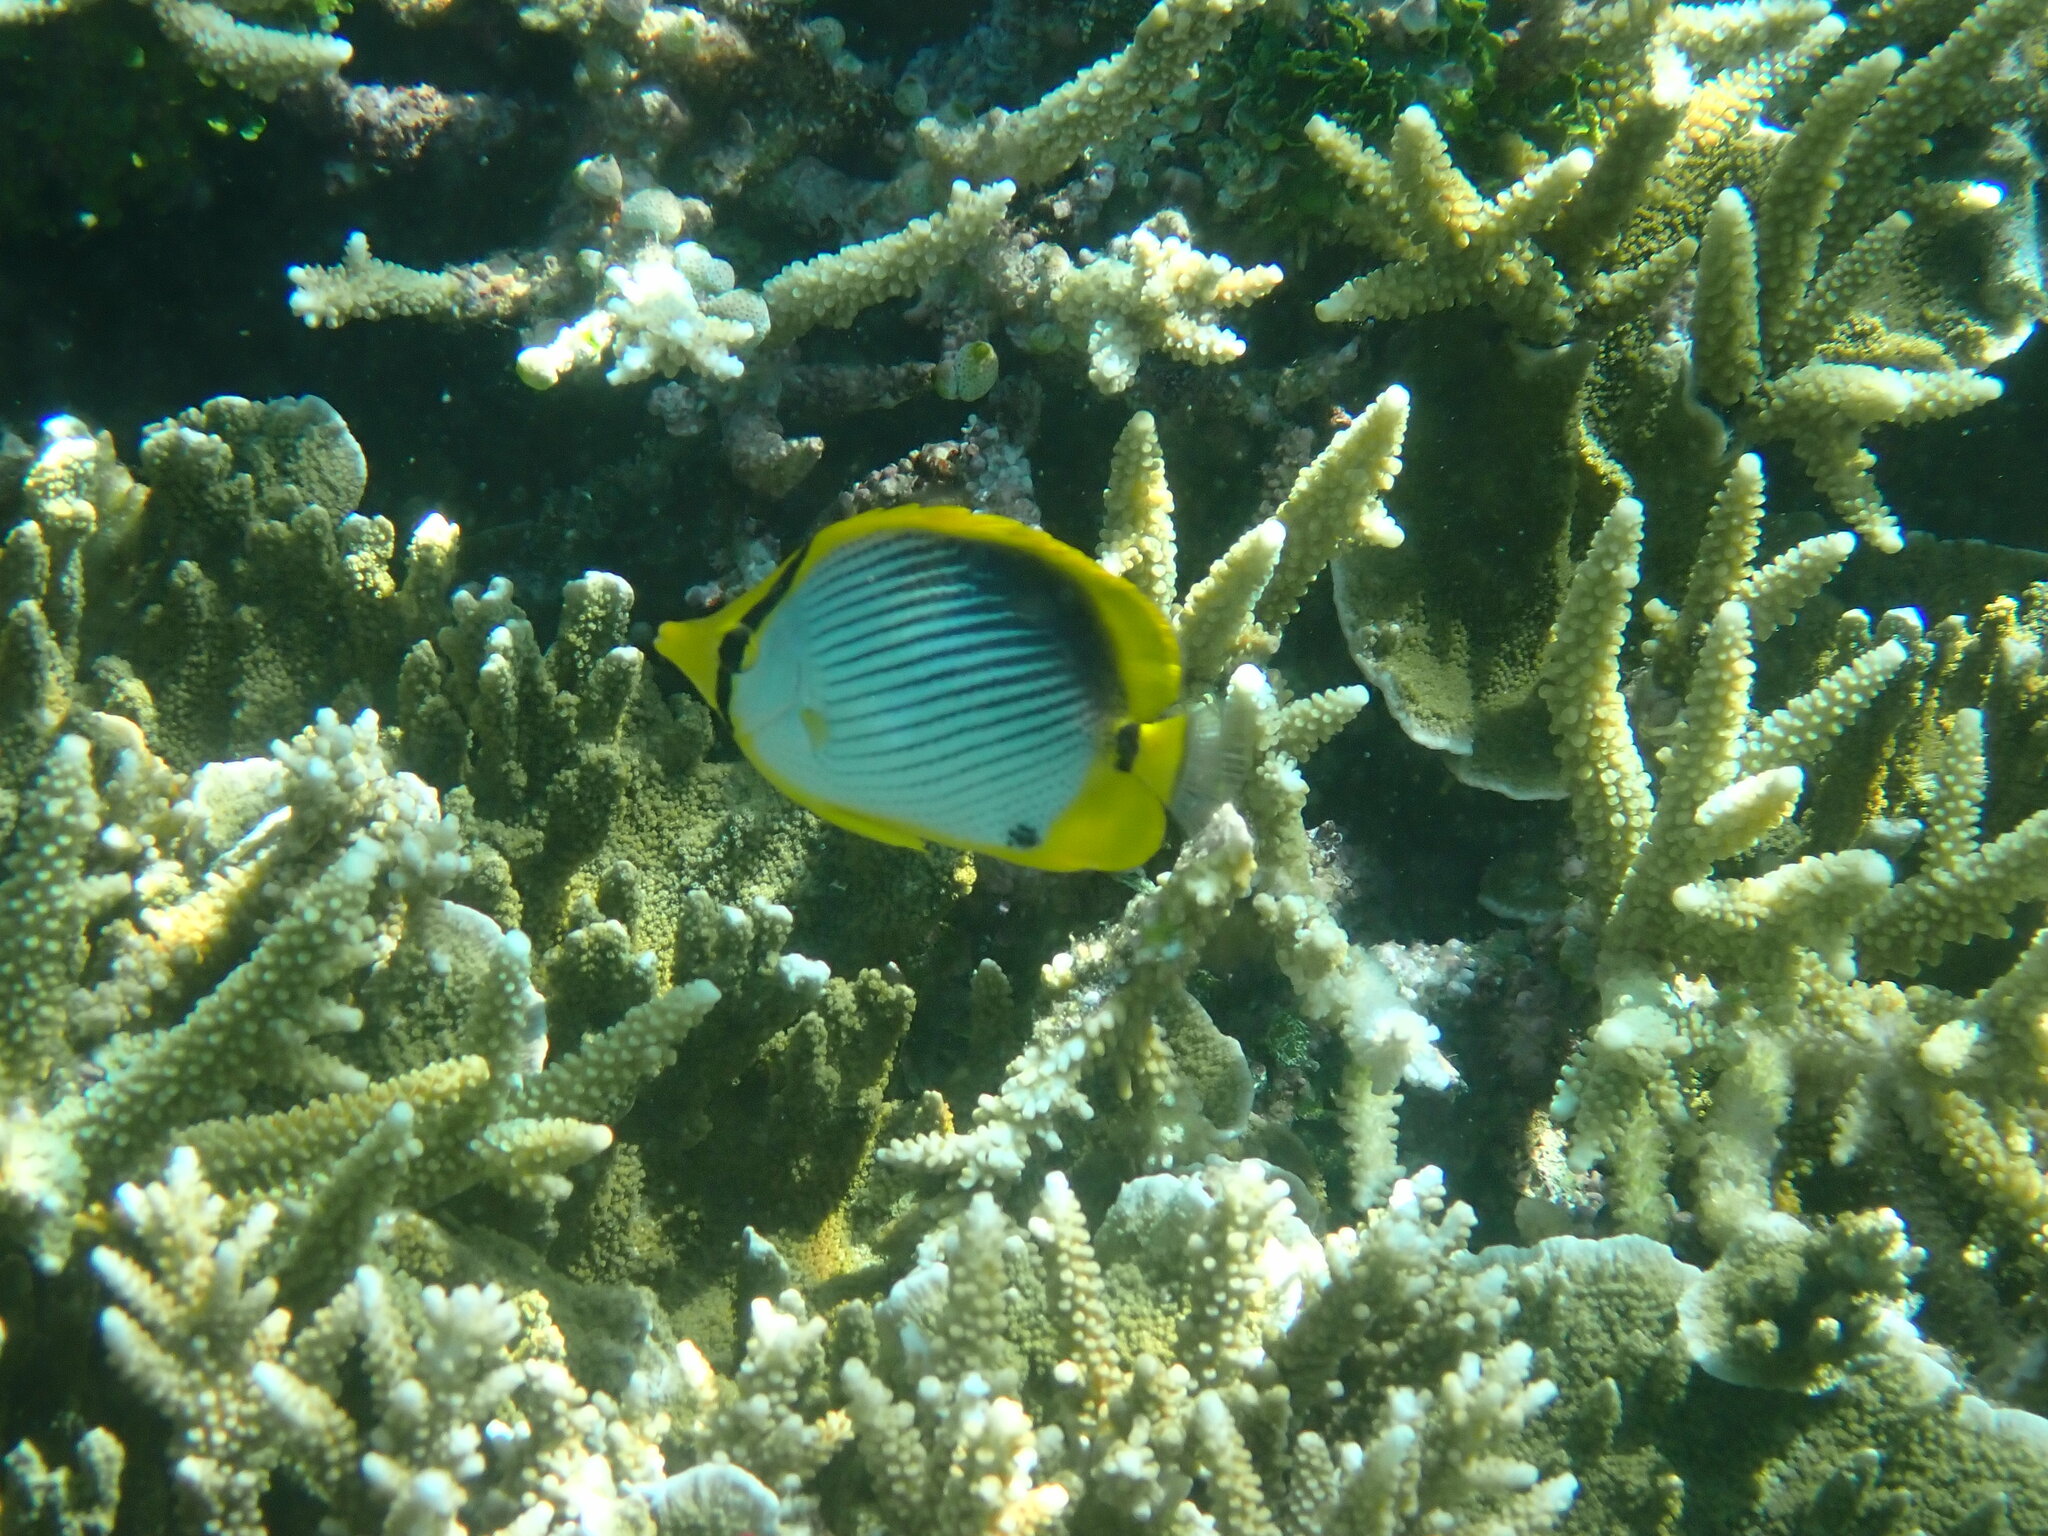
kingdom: Animalia
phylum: Chordata
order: Perciformes
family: Chaetodontidae
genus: Chaetodon
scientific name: Chaetodon melannotus
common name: Blackback butterflyfish
